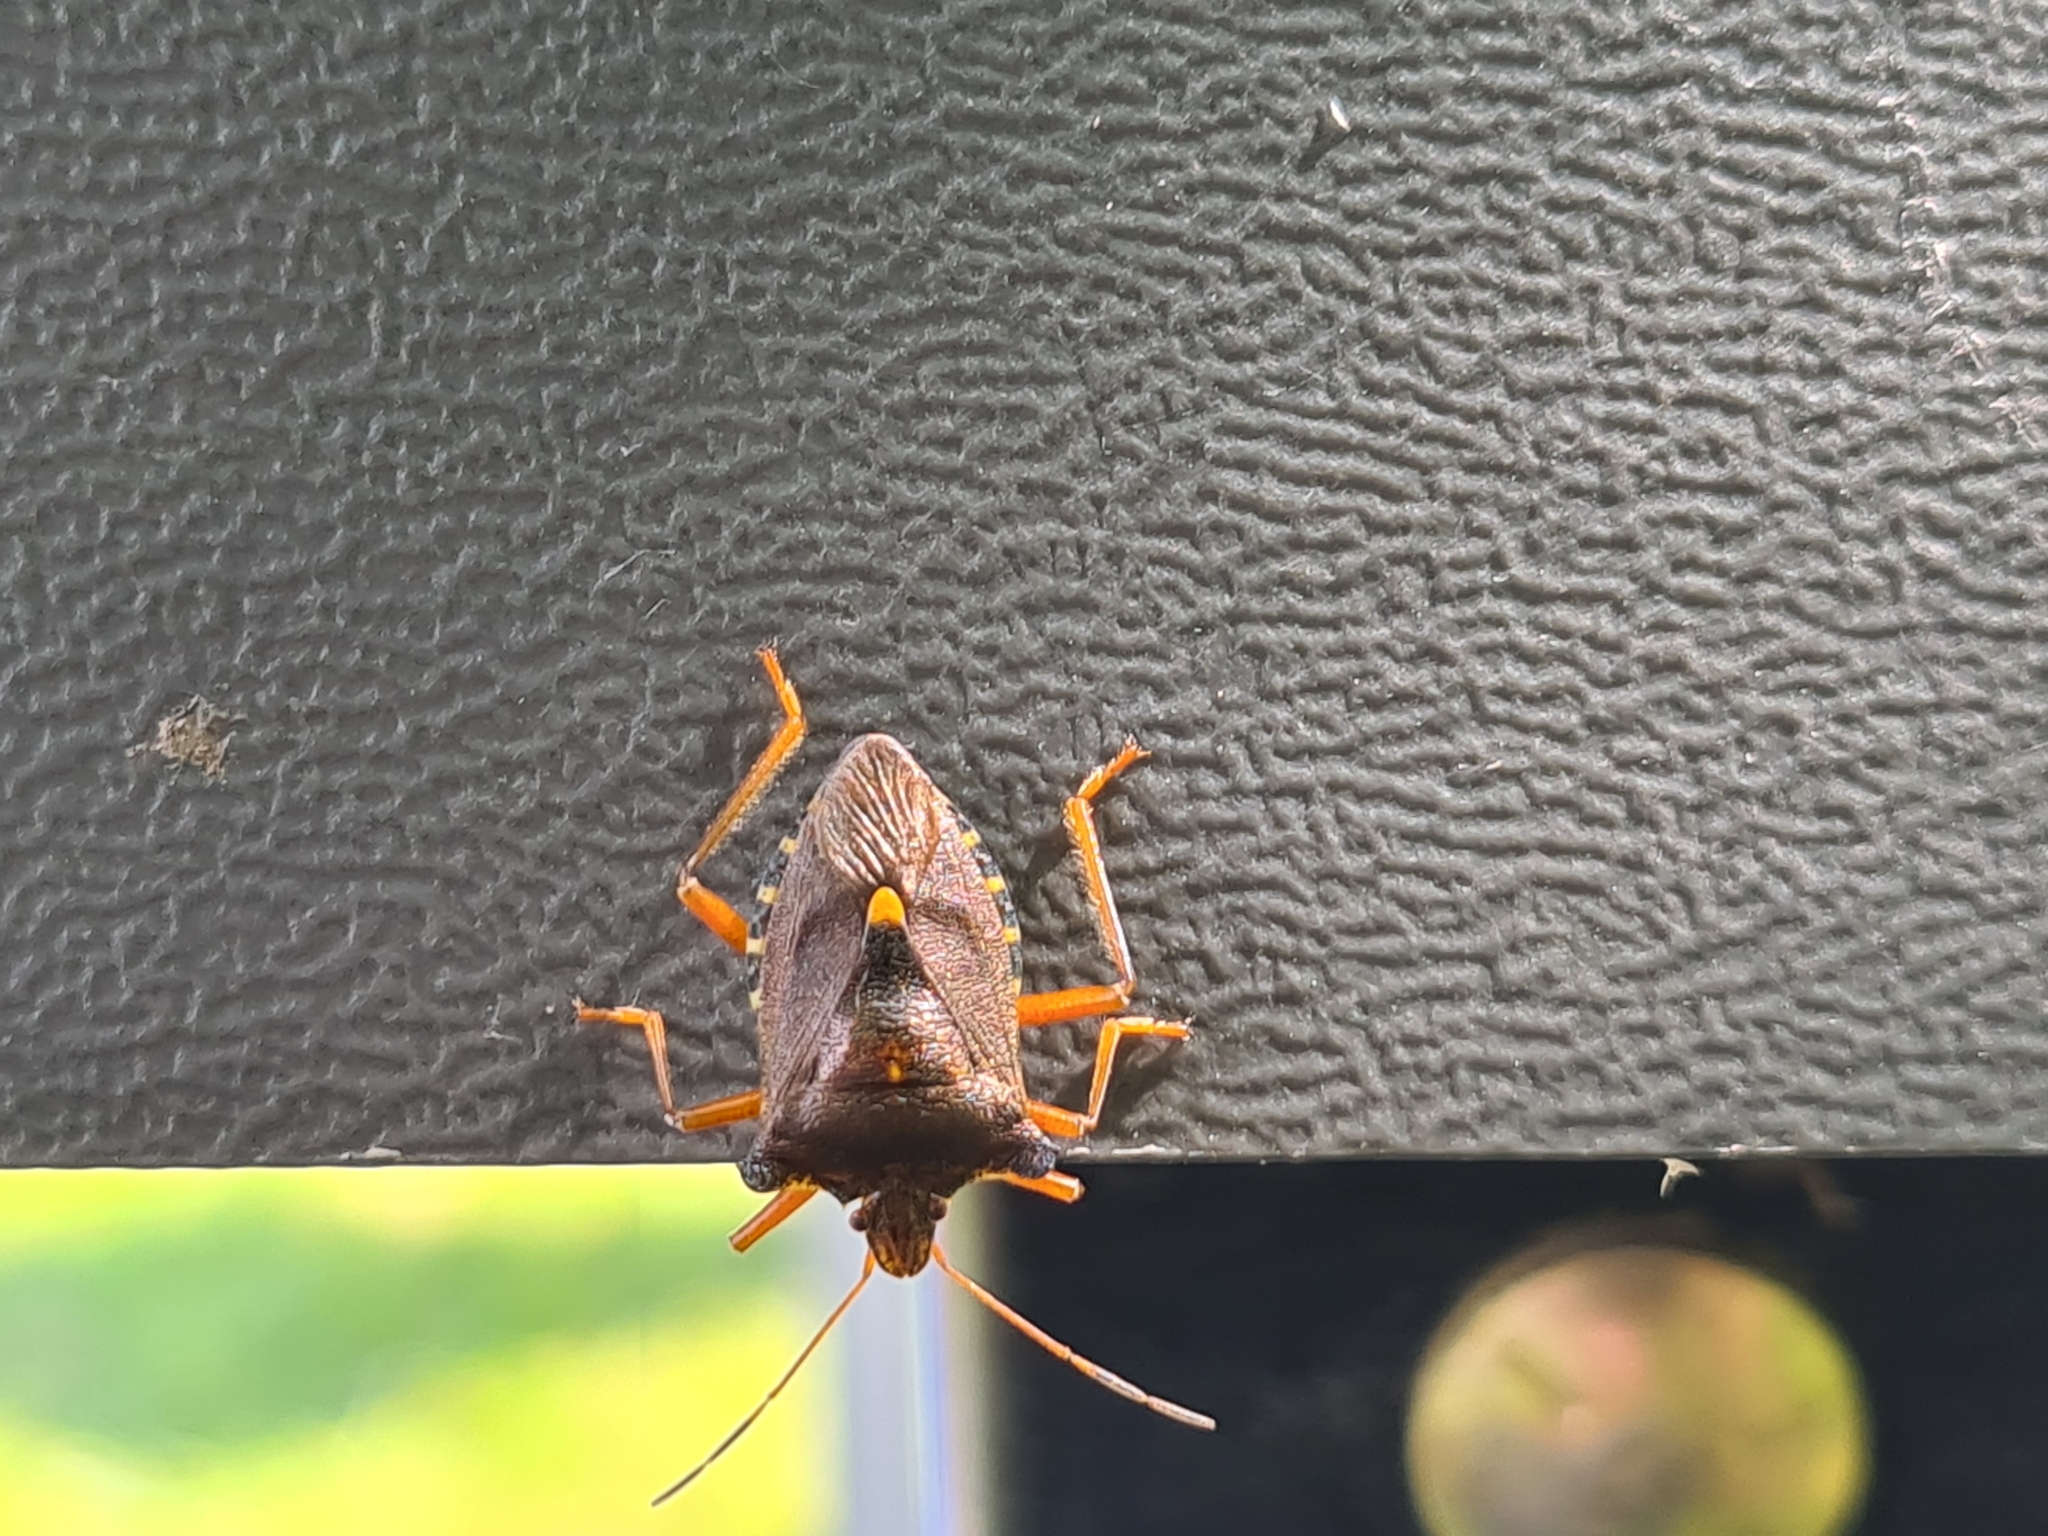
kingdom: Animalia
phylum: Arthropoda
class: Insecta
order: Hemiptera
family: Pentatomidae
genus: Pentatoma
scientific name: Pentatoma rufipes
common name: Forest bug
